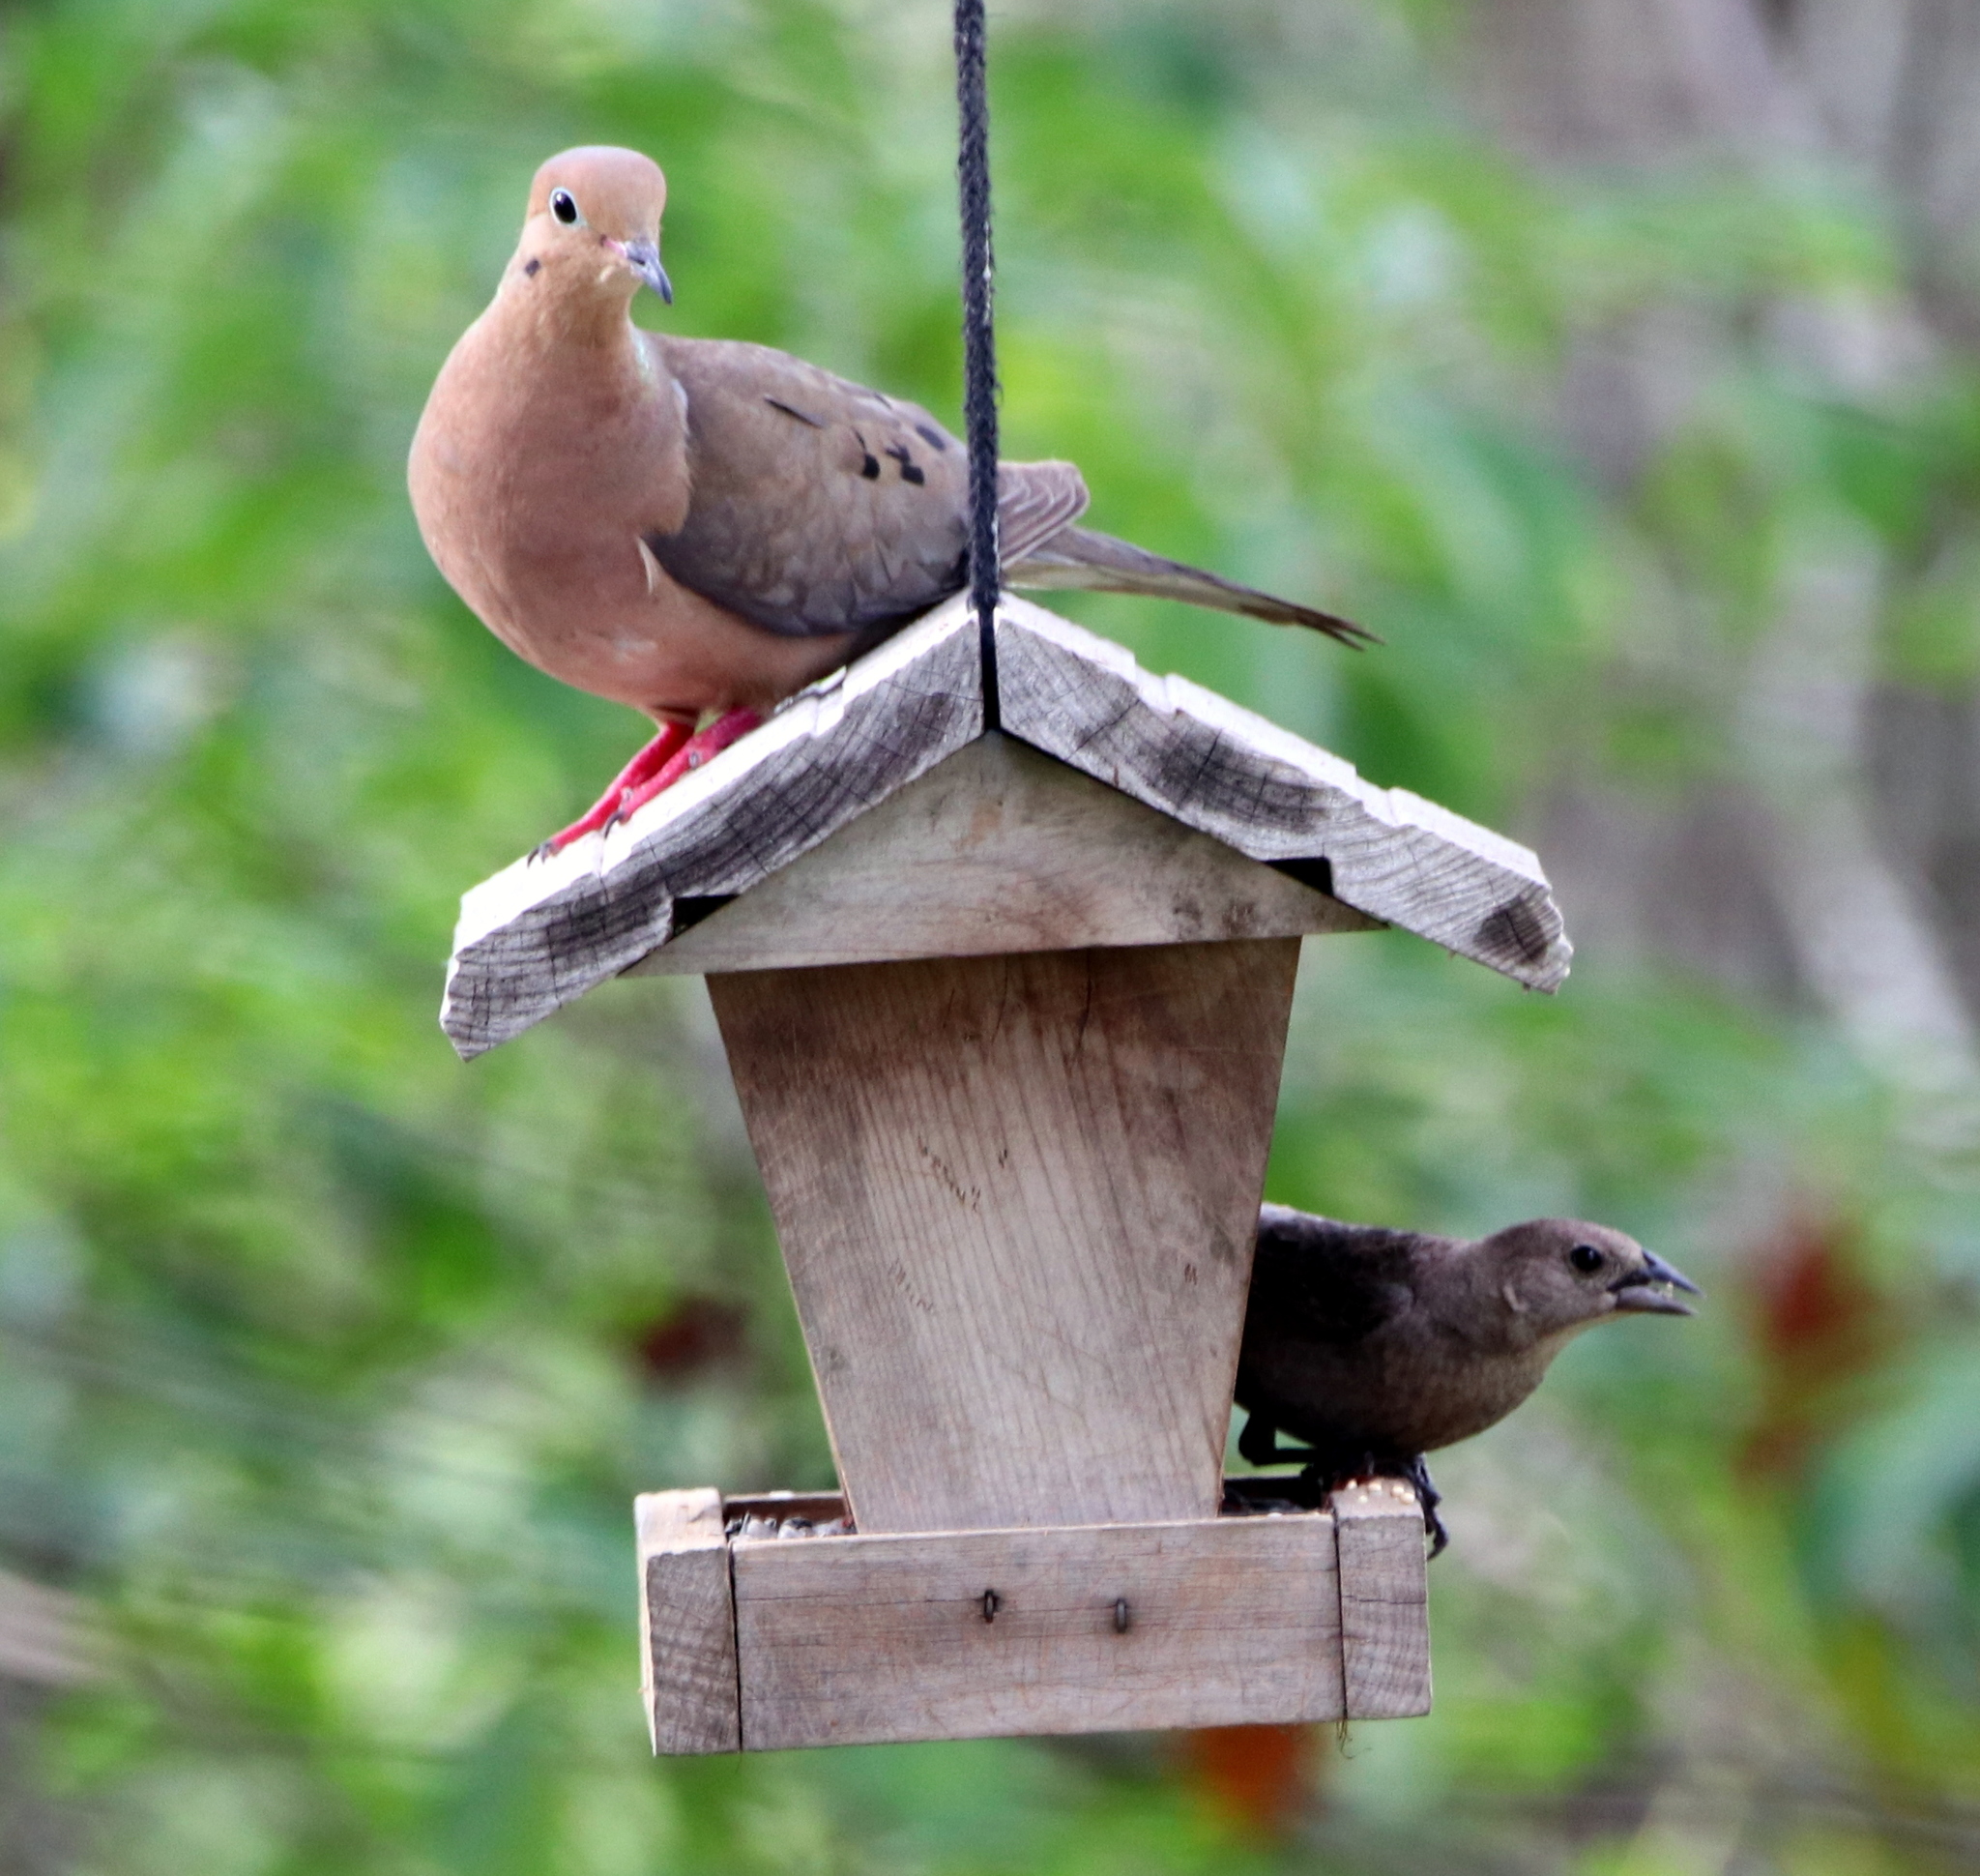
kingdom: Animalia
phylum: Chordata
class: Aves
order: Passeriformes
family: Icteridae
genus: Molothrus
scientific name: Molothrus ater
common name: Brown-headed cowbird
